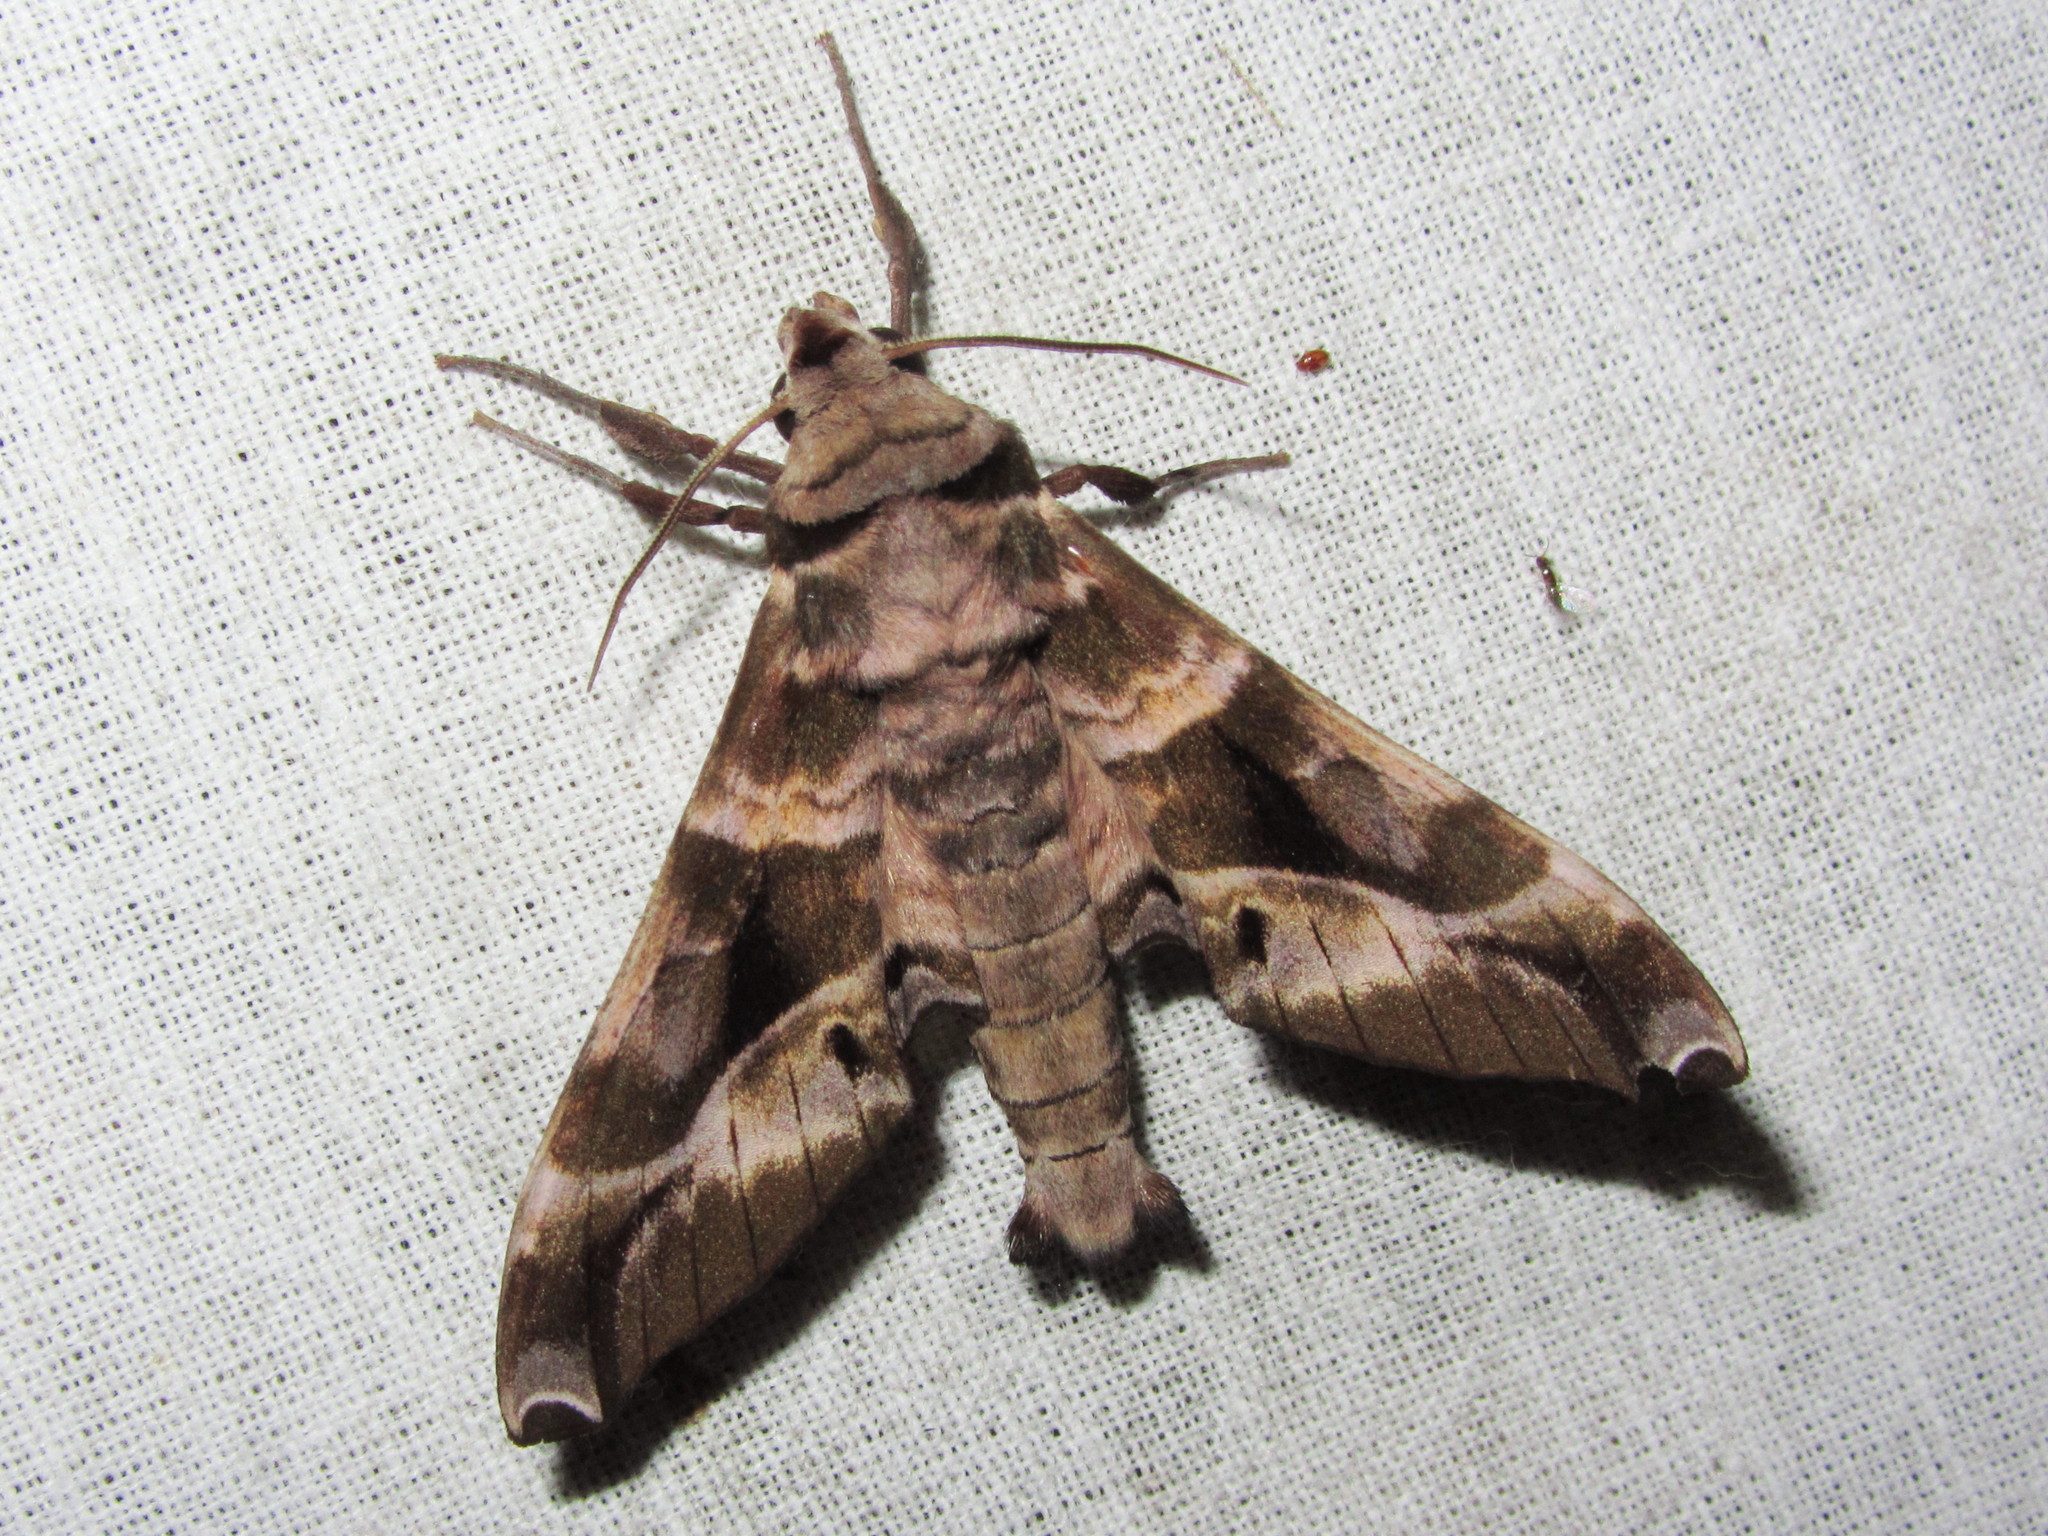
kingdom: Animalia
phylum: Arthropoda
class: Insecta
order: Lepidoptera
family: Sphingidae
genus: Craspedortha
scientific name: Craspedortha porphyria
